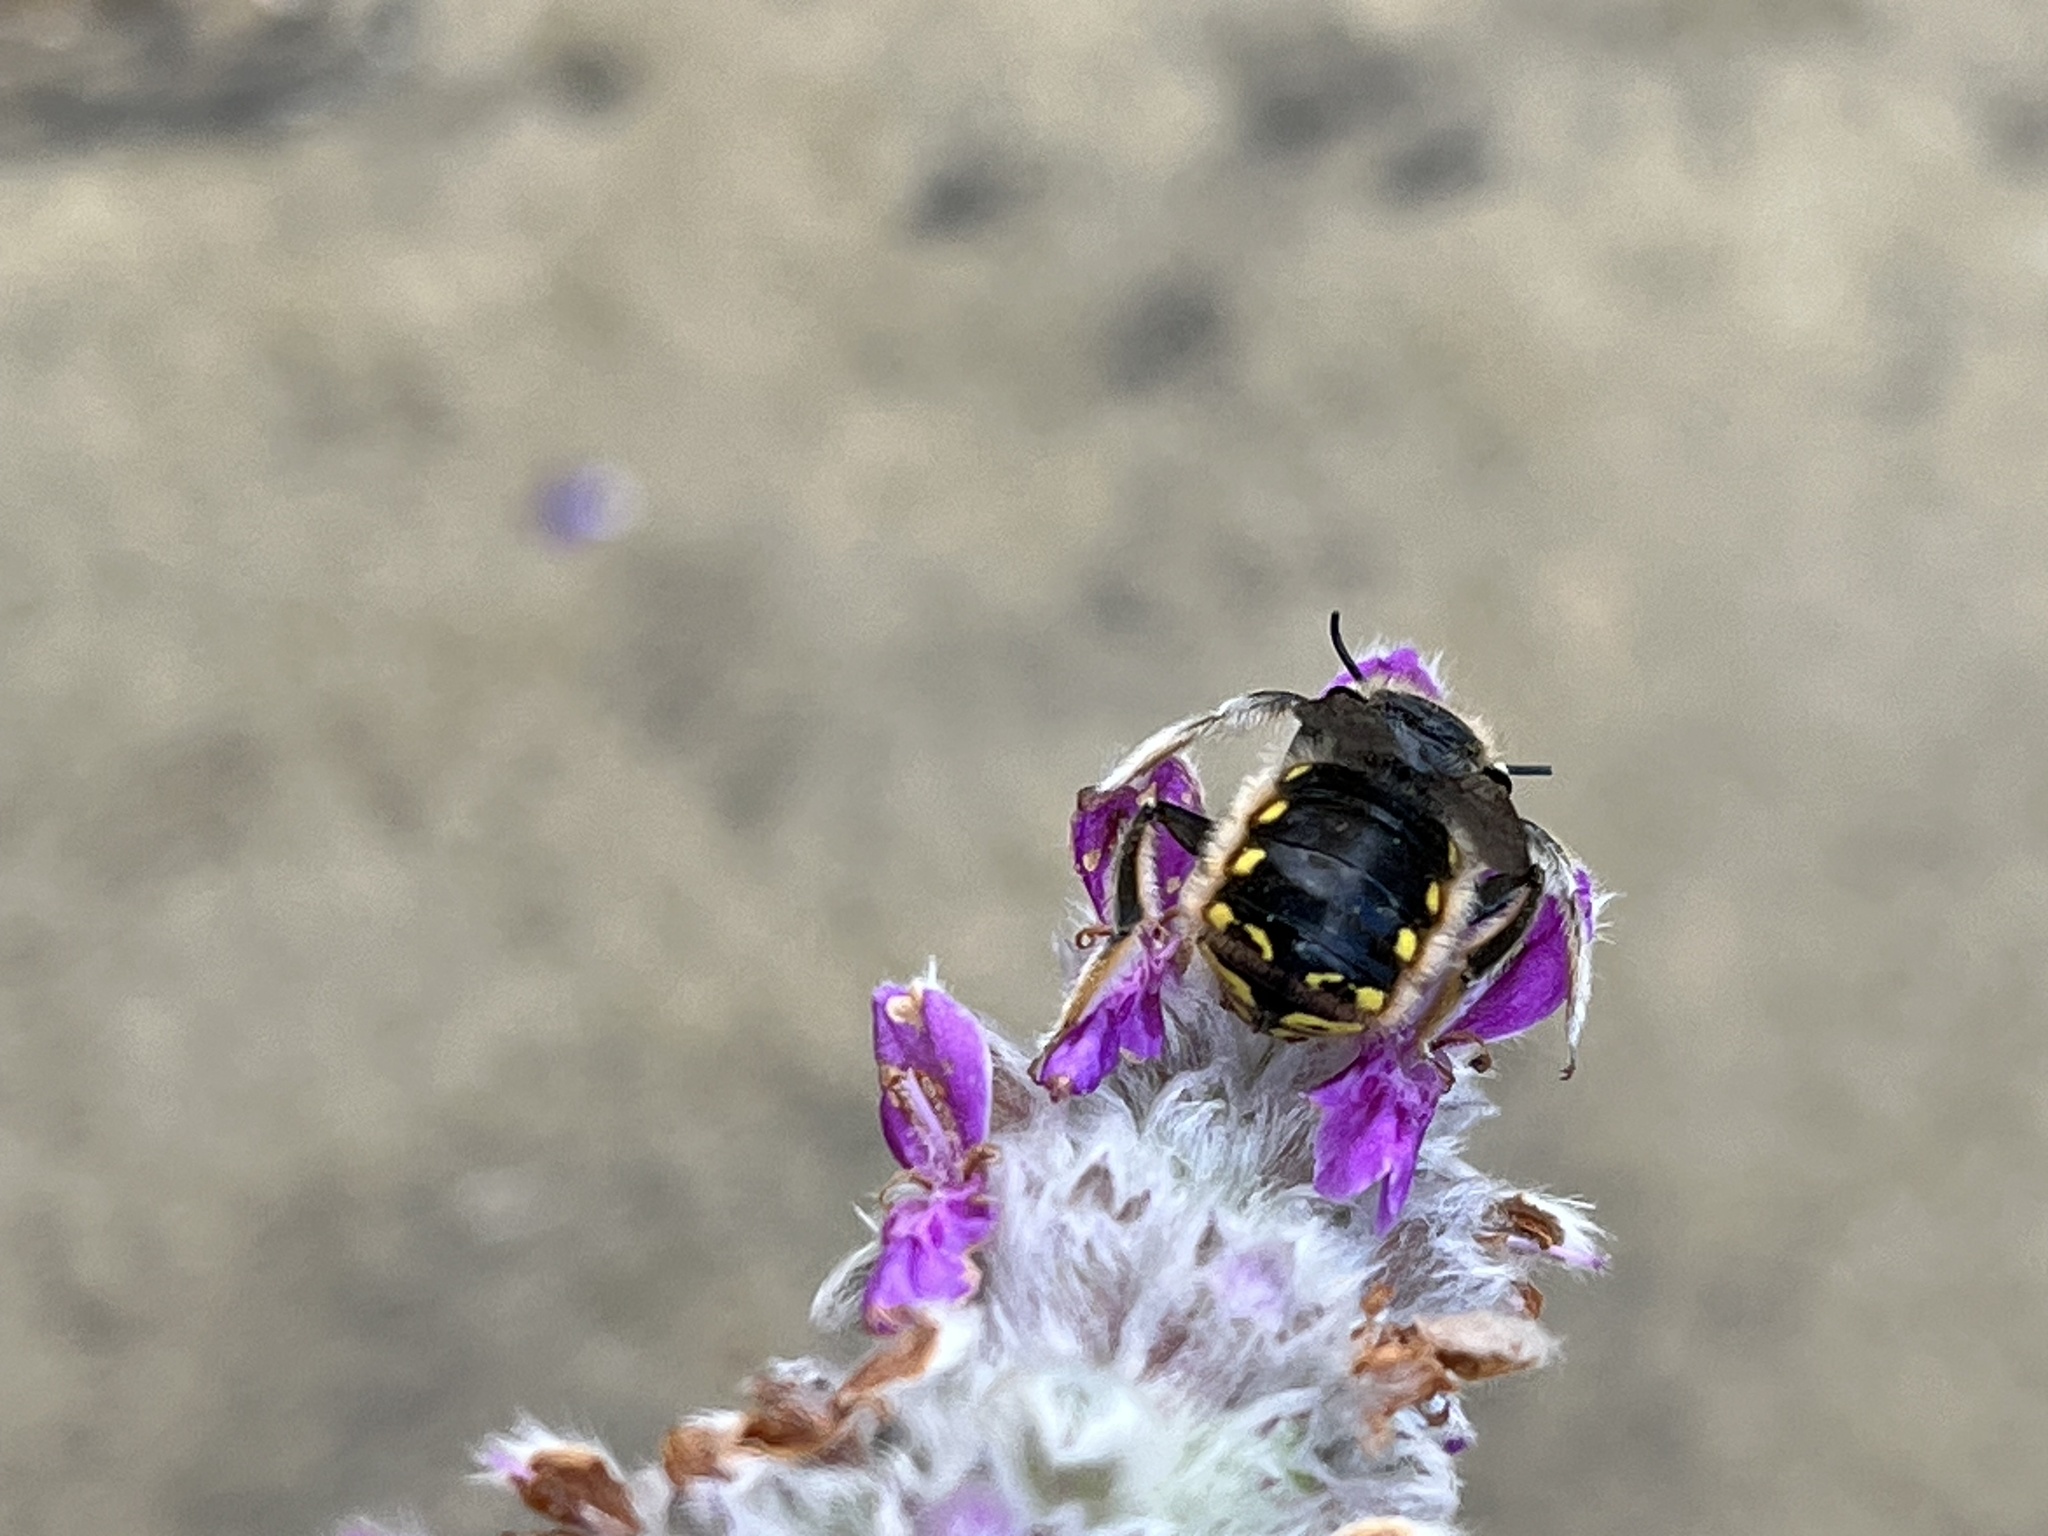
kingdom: Animalia
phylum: Arthropoda
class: Insecta
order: Hymenoptera
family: Megachilidae
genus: Anthidium
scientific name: Anthidium manicatum
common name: Wool carder bee
